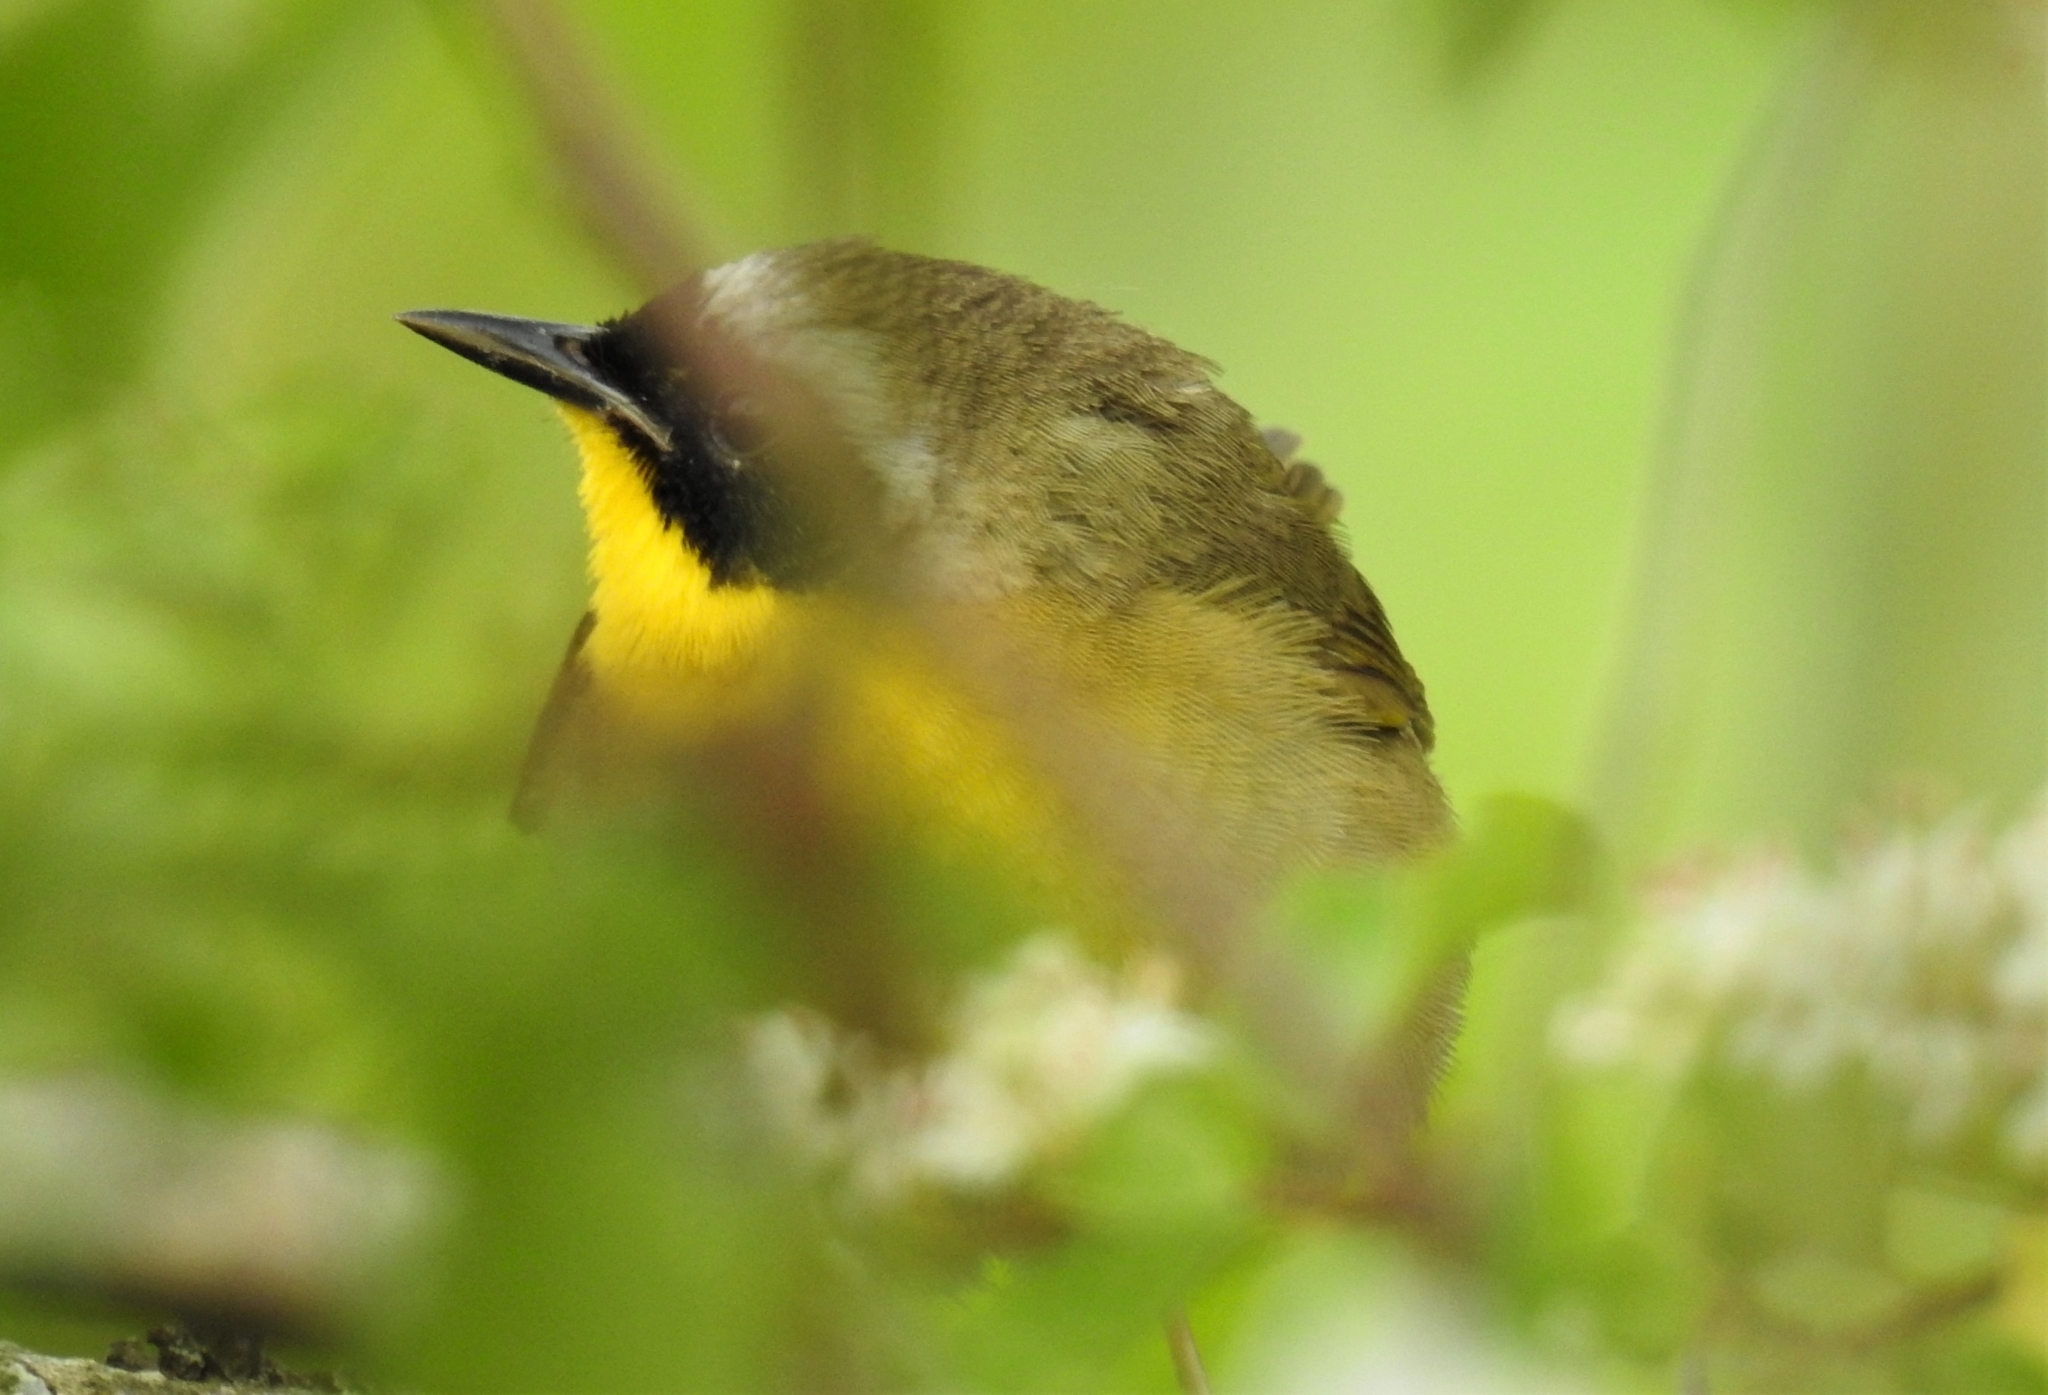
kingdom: Animalia
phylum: Chordata
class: Aves
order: Passeriformes
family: Parulidae
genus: Geothlypis
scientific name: Geothlypis trichas
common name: Common yellowthroat
